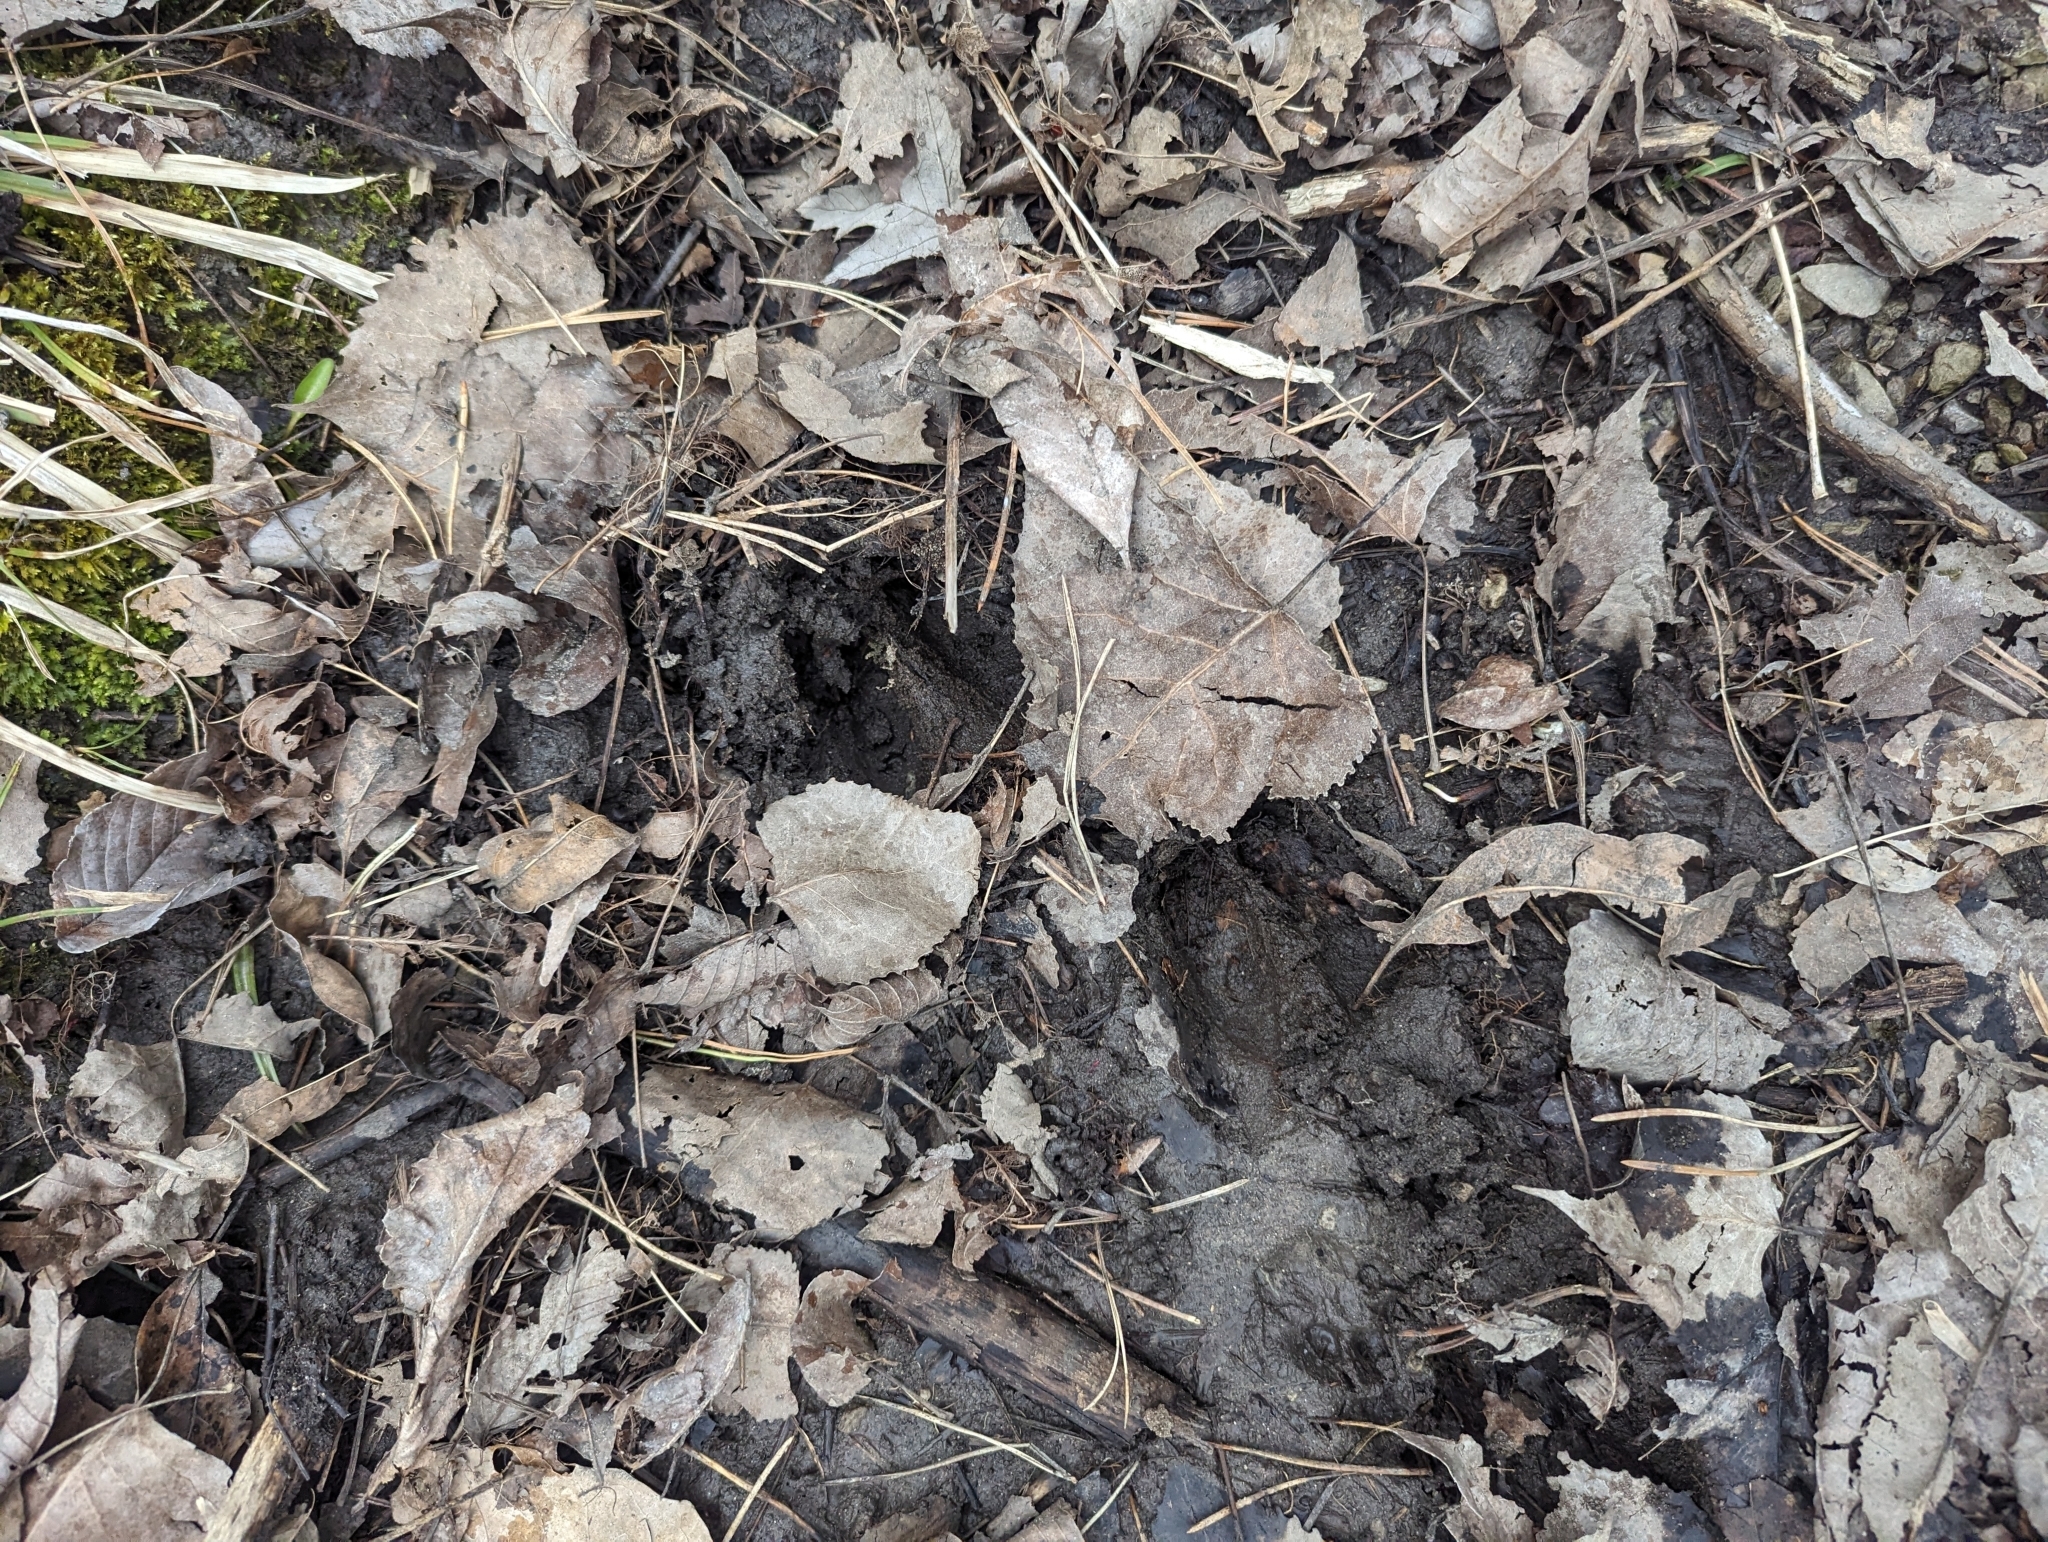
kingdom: Animalia
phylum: Chordata
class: Mammalia
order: Artiodactyla
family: Cervidae
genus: Odocoileus
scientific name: Odocoileus virginianus
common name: White-tailed deer
